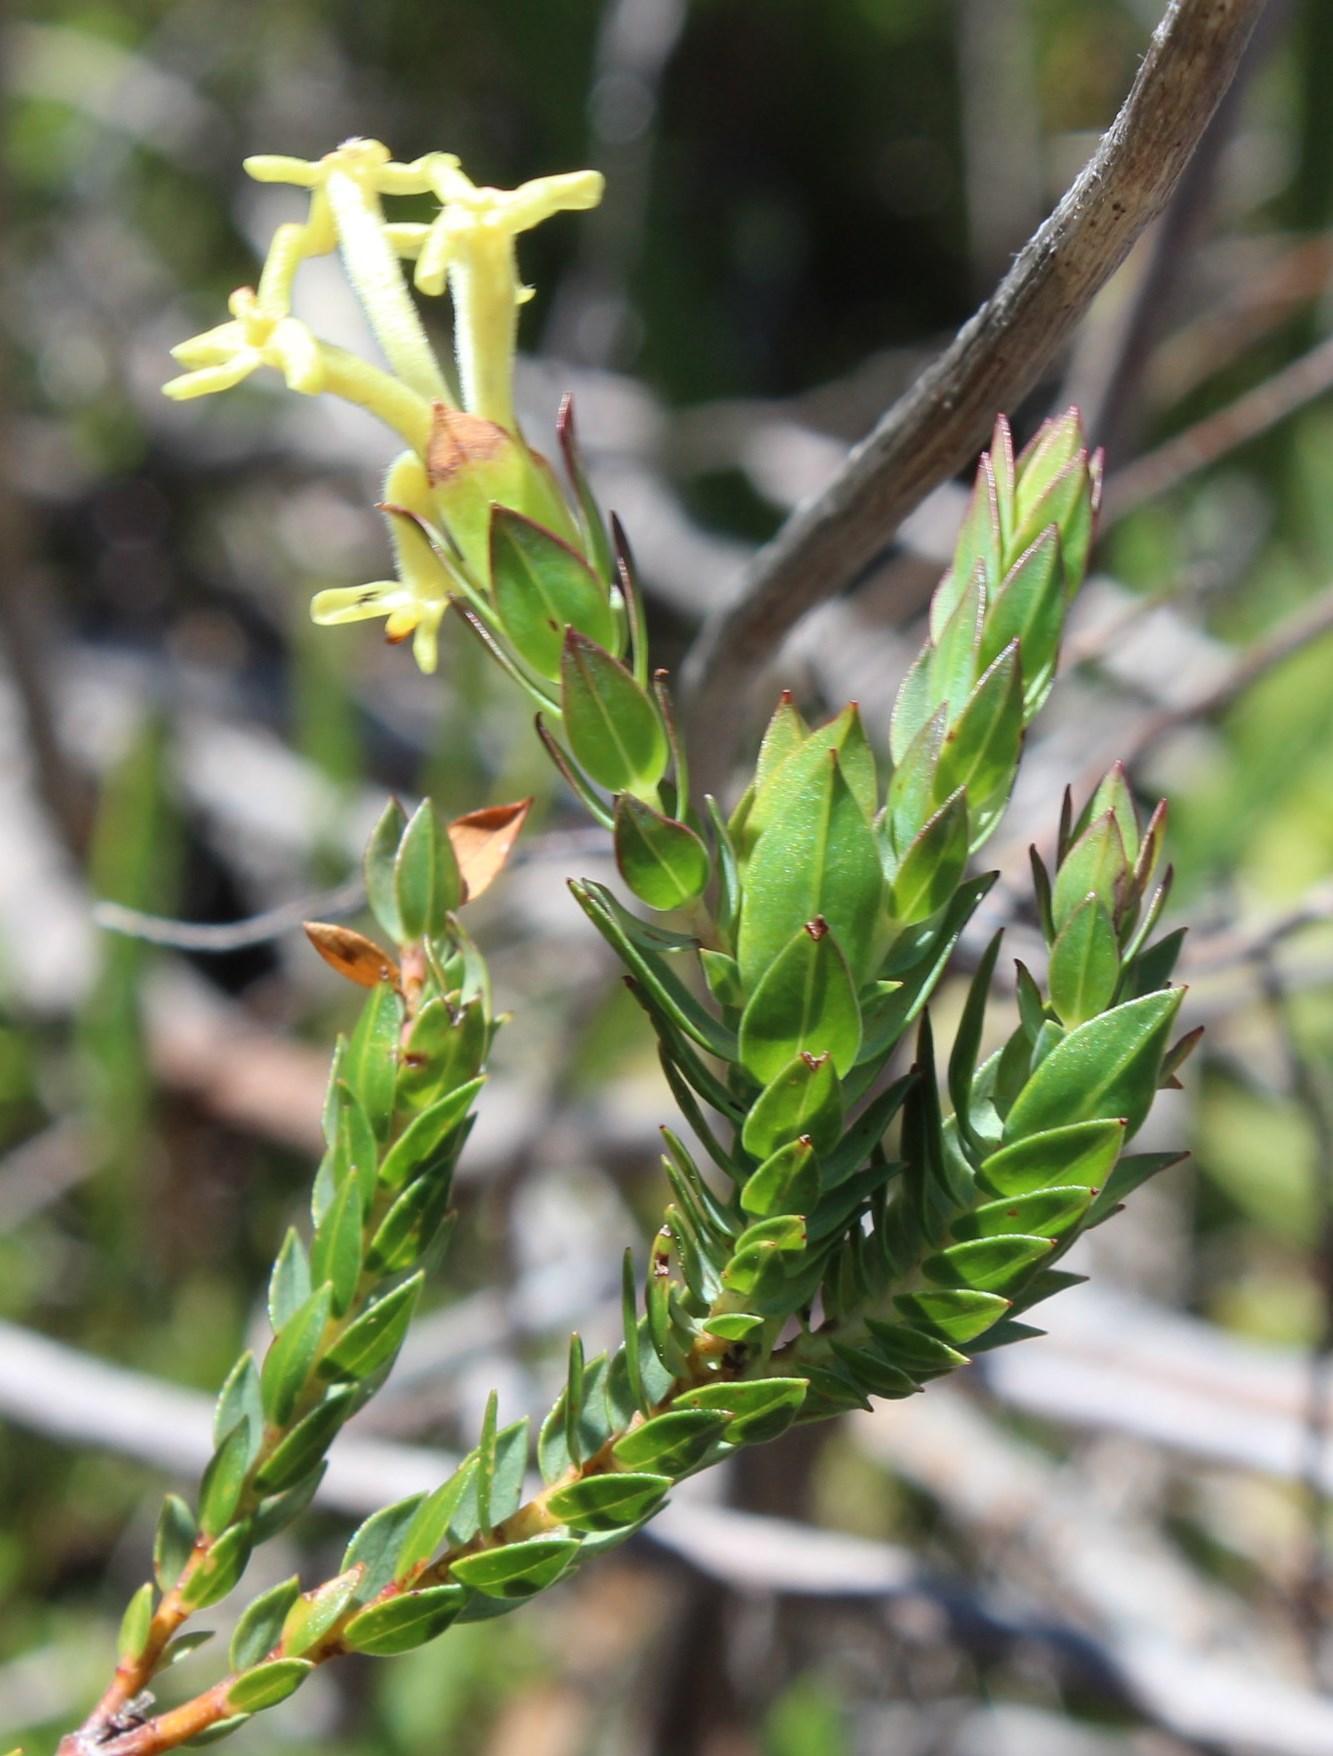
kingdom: Plantae
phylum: Tracheophyta
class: Magnoliopsida
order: Malvales
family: Thymelaeaceae
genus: Gnidia
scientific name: Gnidia oppositifolia
